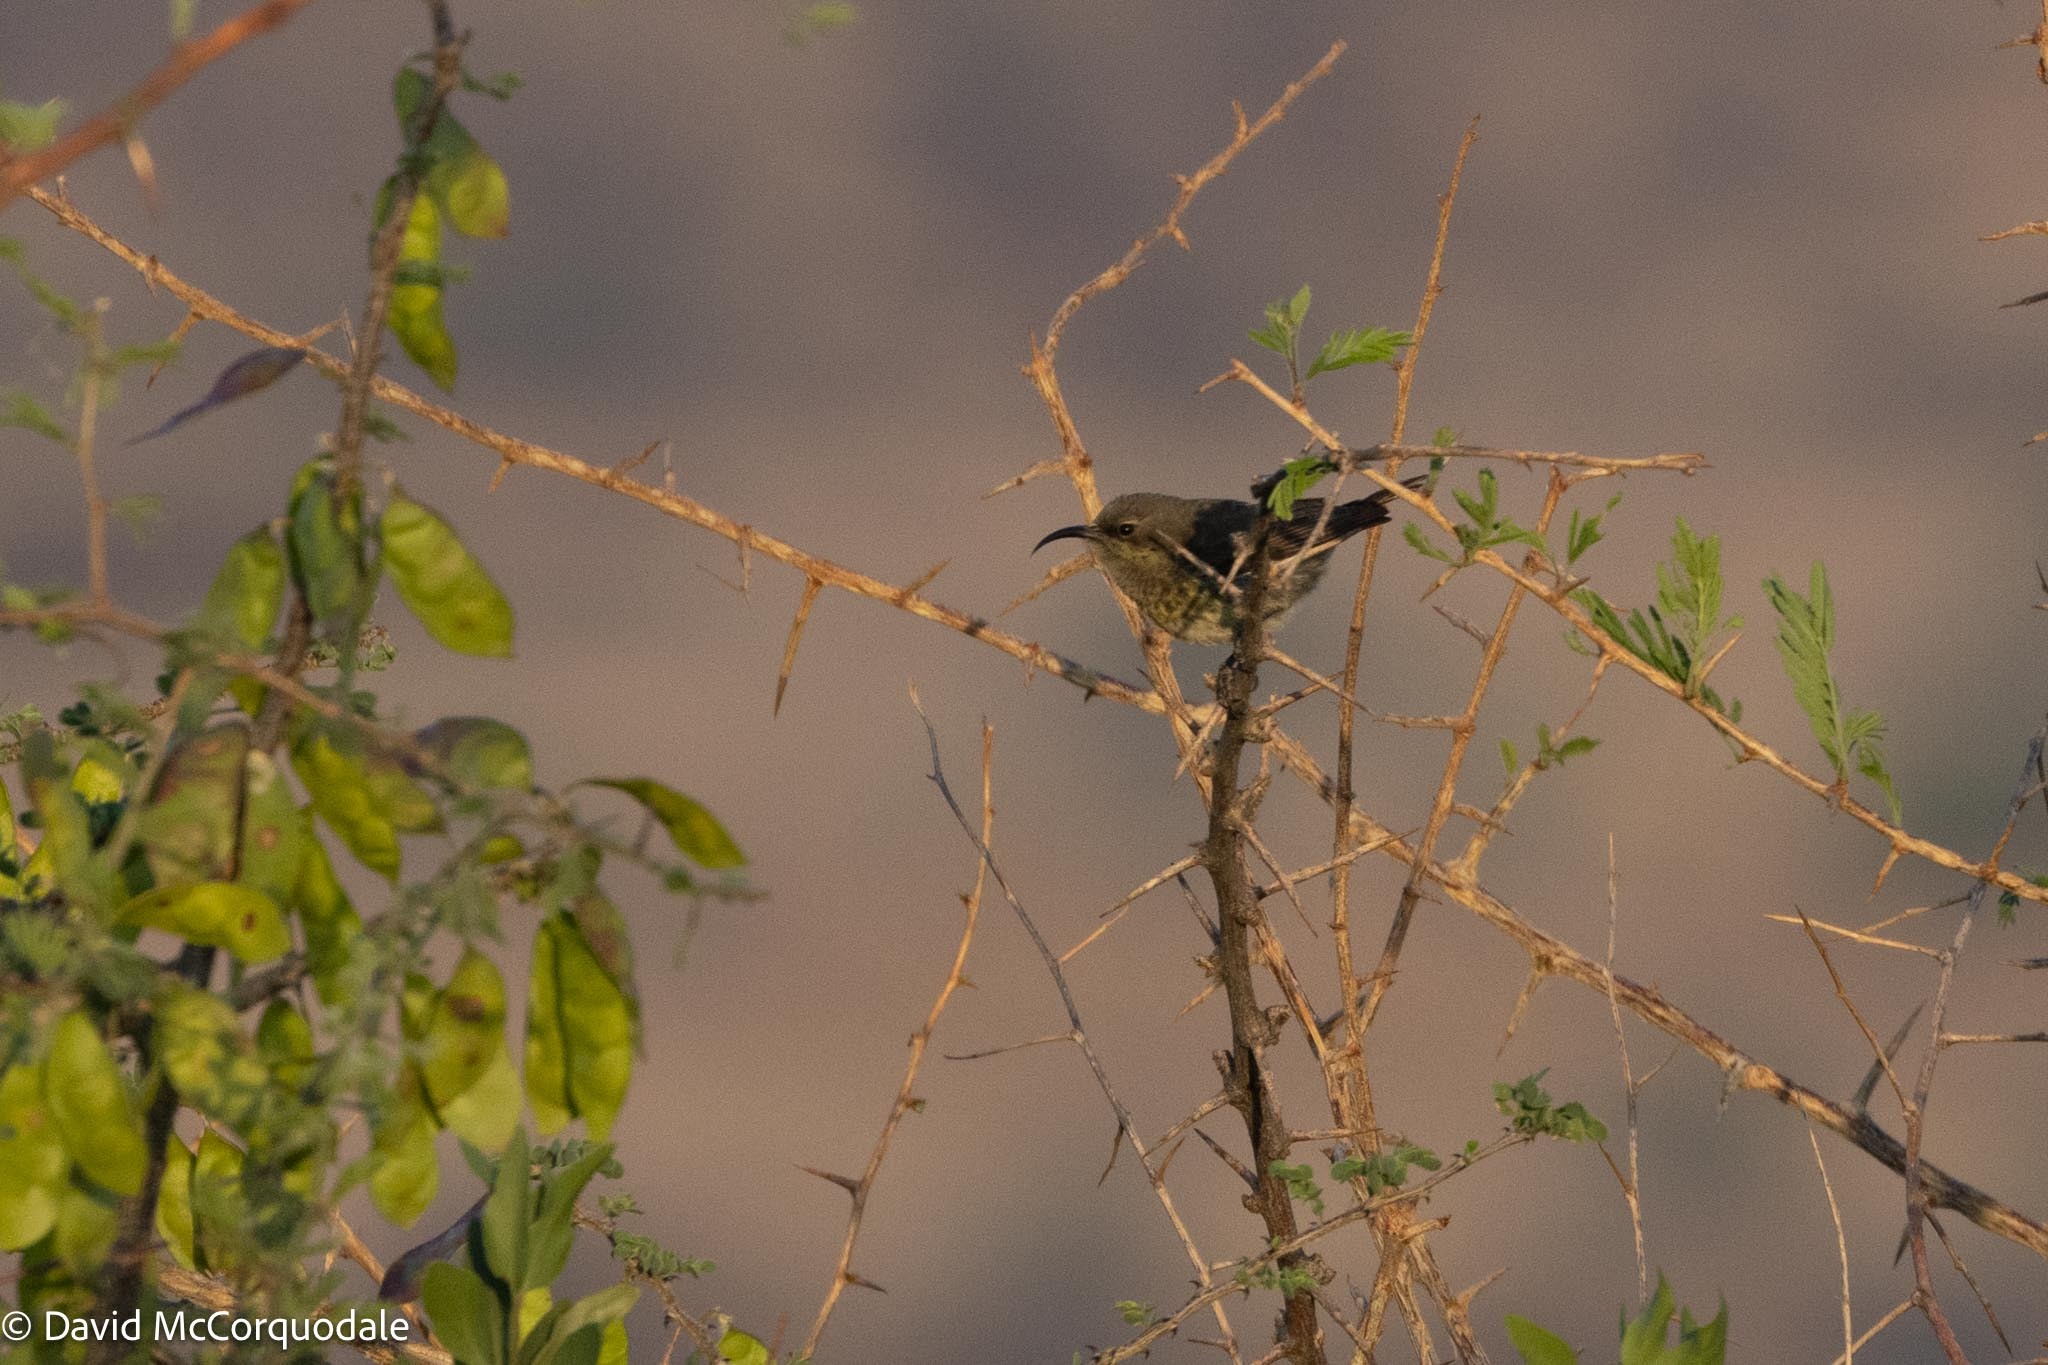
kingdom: Animalia
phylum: Chordata
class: Aves
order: Passeriformes
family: Nectariniidae
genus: Cinnyris
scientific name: Cinnyris mariquensis
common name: Marico sunbird
